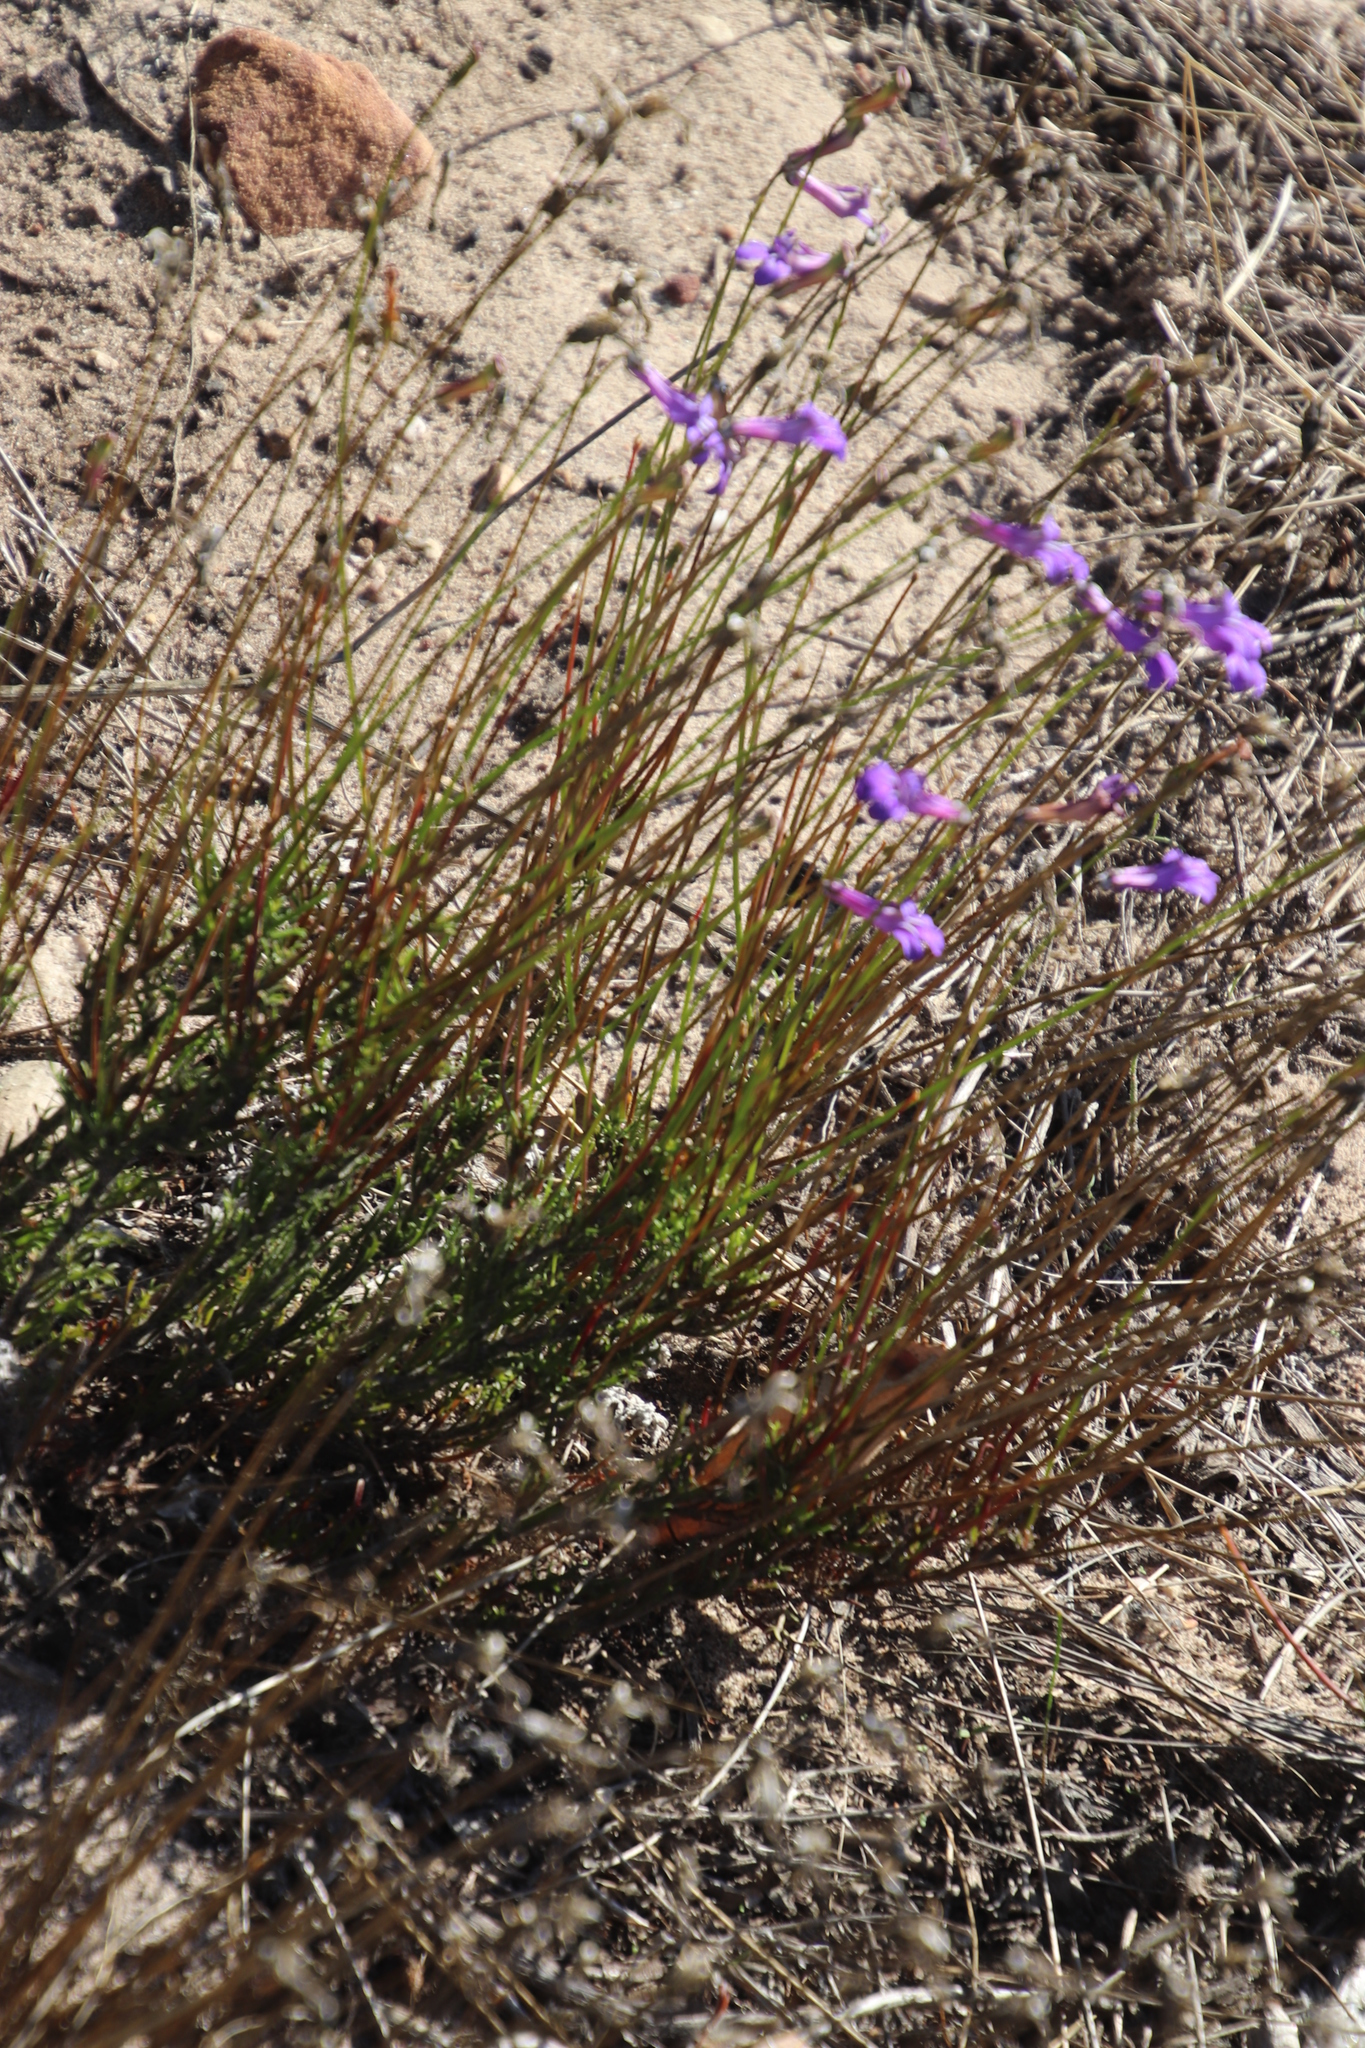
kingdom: Plantae
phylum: Tracheophyta
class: Magnoliopsida
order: Asterales
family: Campanulaceae
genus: Lobelia
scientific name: Lobelia coronopifolia
